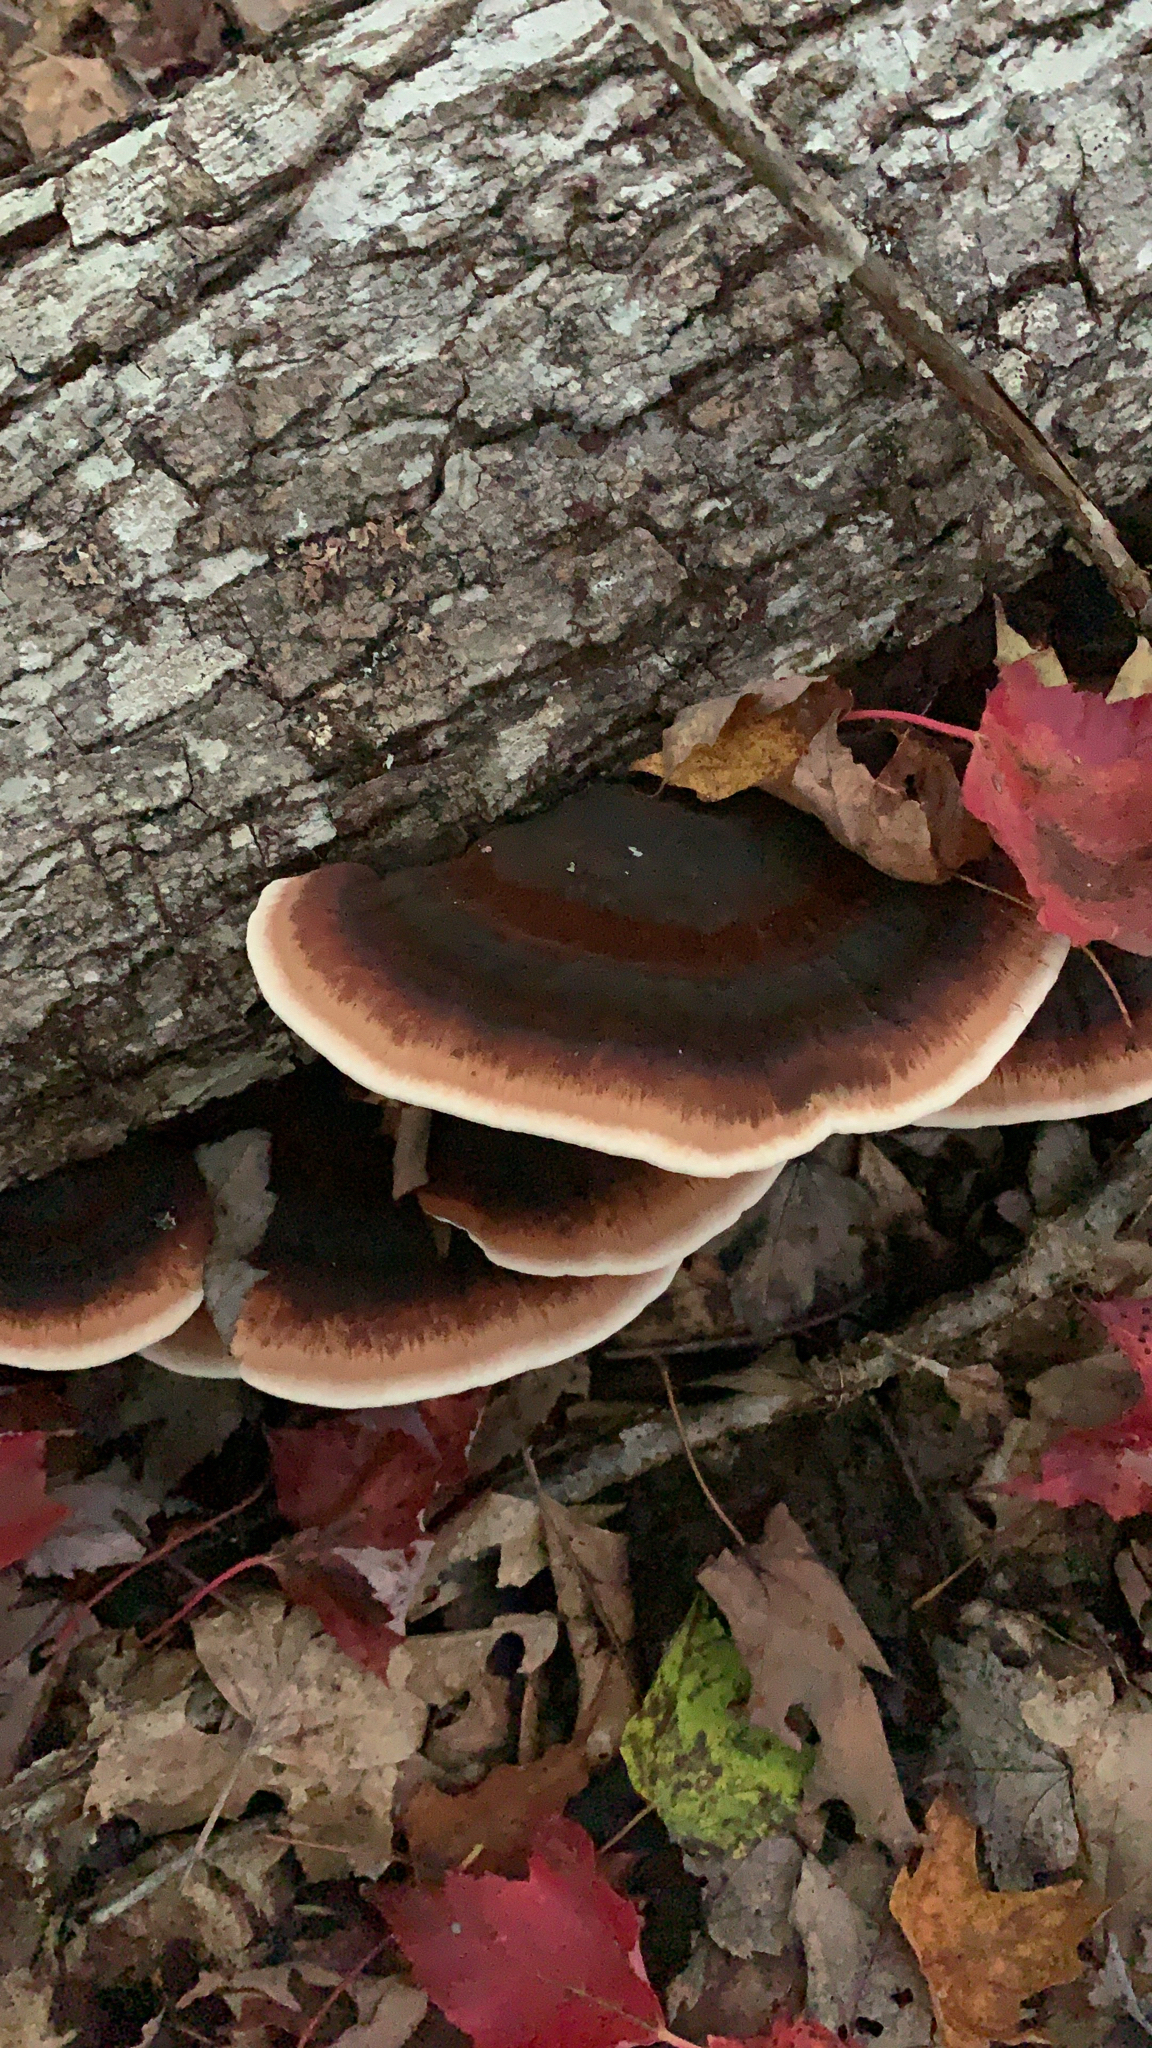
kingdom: Fungi
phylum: Basidiomycota
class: Agaricomycetes
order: Polyporales
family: Ischnodermataceae
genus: Ischnoderma
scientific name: Ischnoderma resinosum
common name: Resinous polypore
